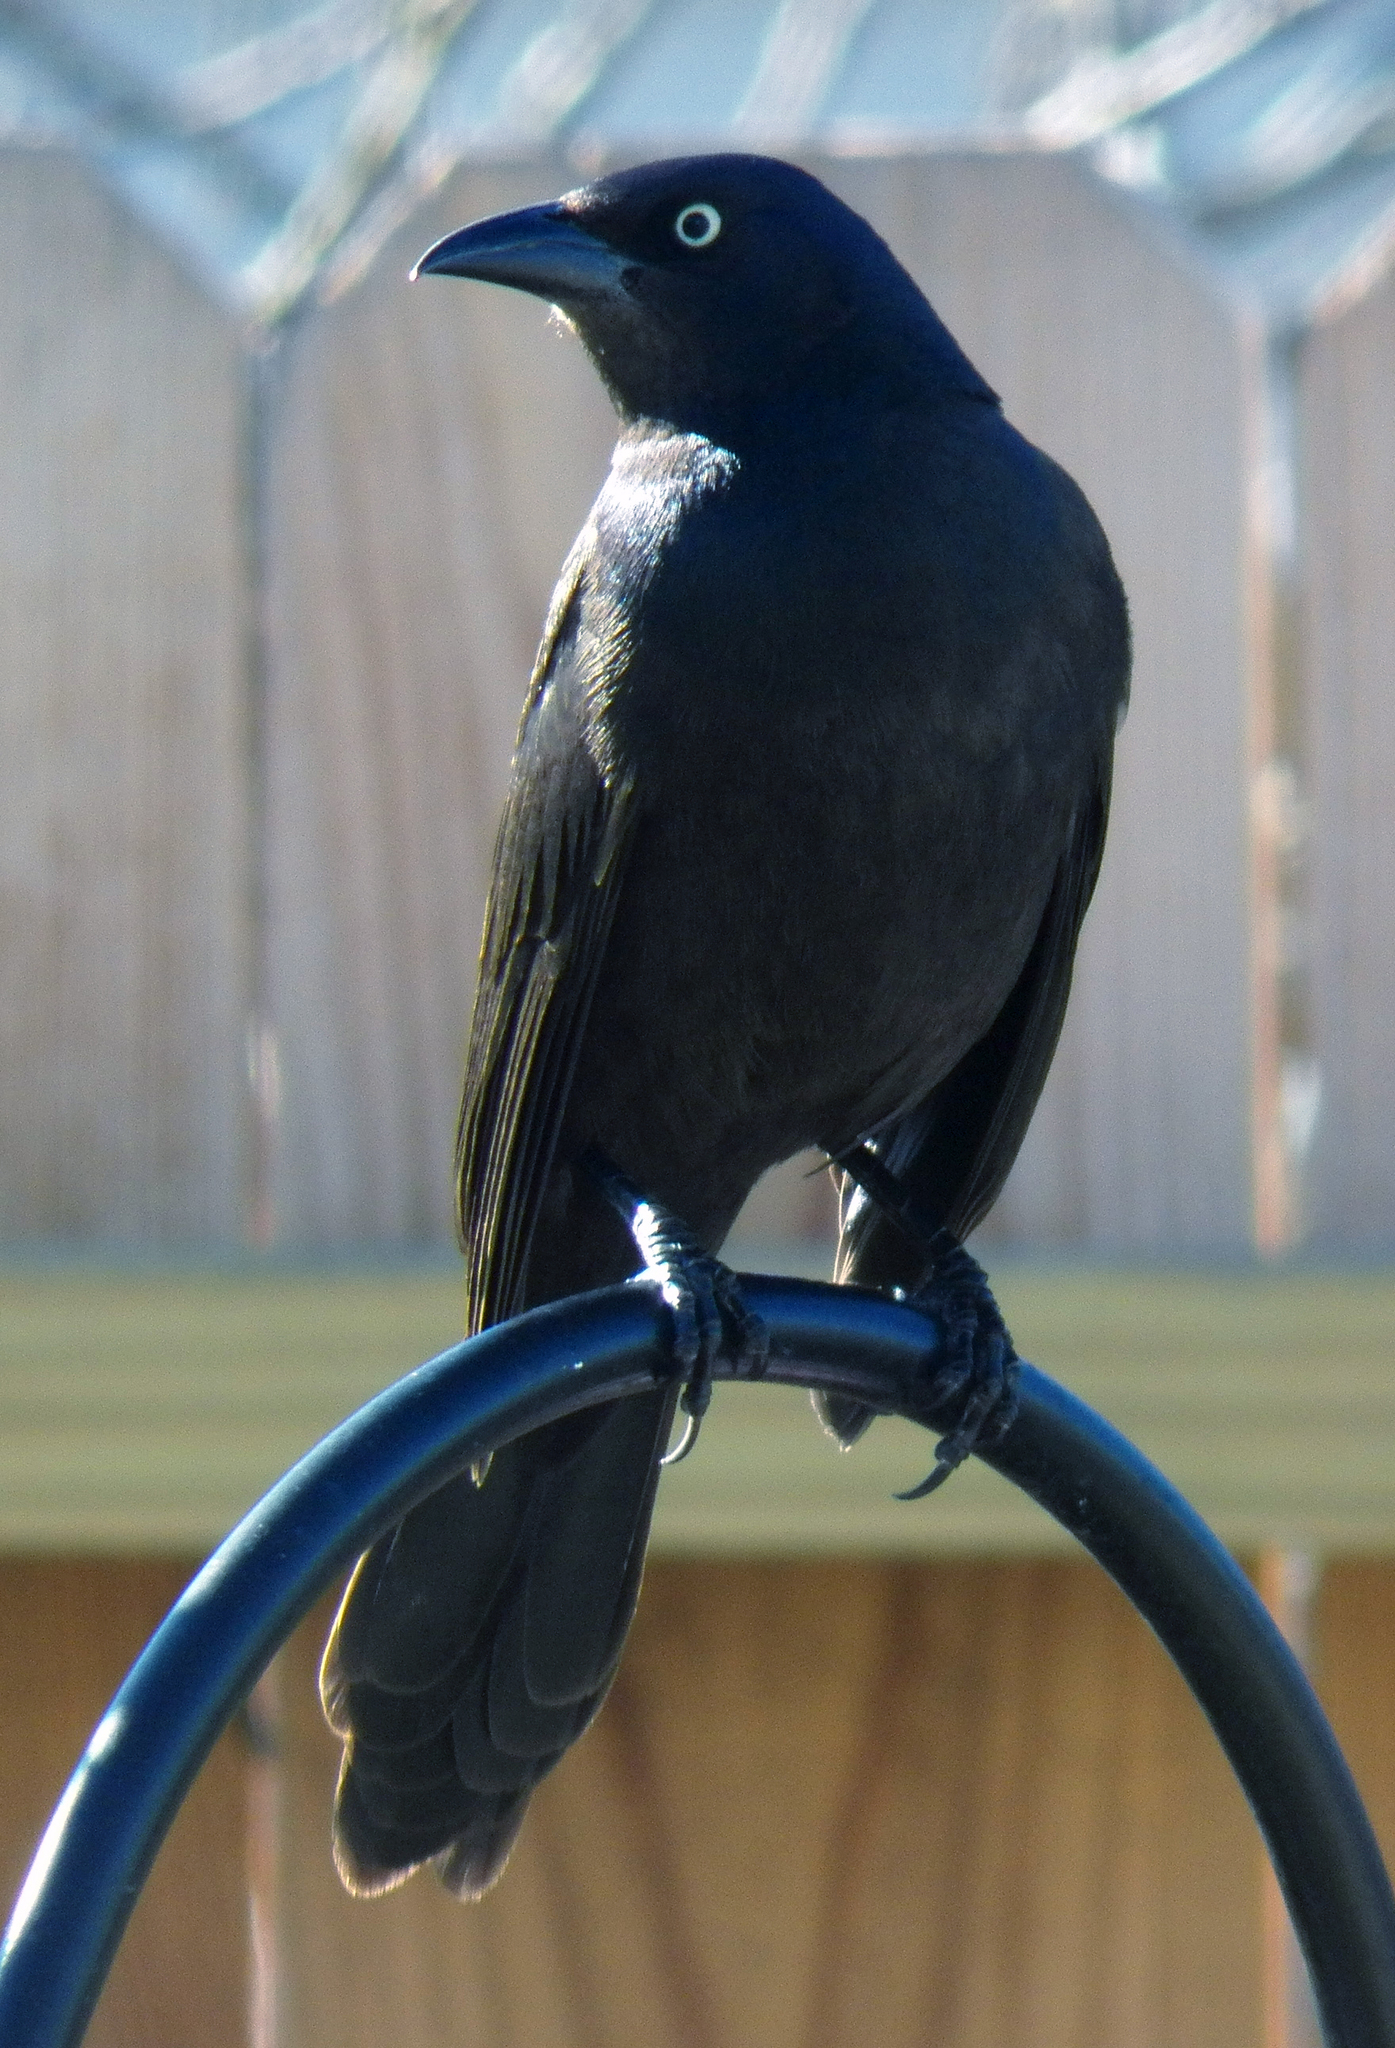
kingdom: Animalia
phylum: Chordata
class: Aves
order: Passeriformes
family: Icteridae
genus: Quiscalus
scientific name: Quiscalus quiscula
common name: Common grackle
